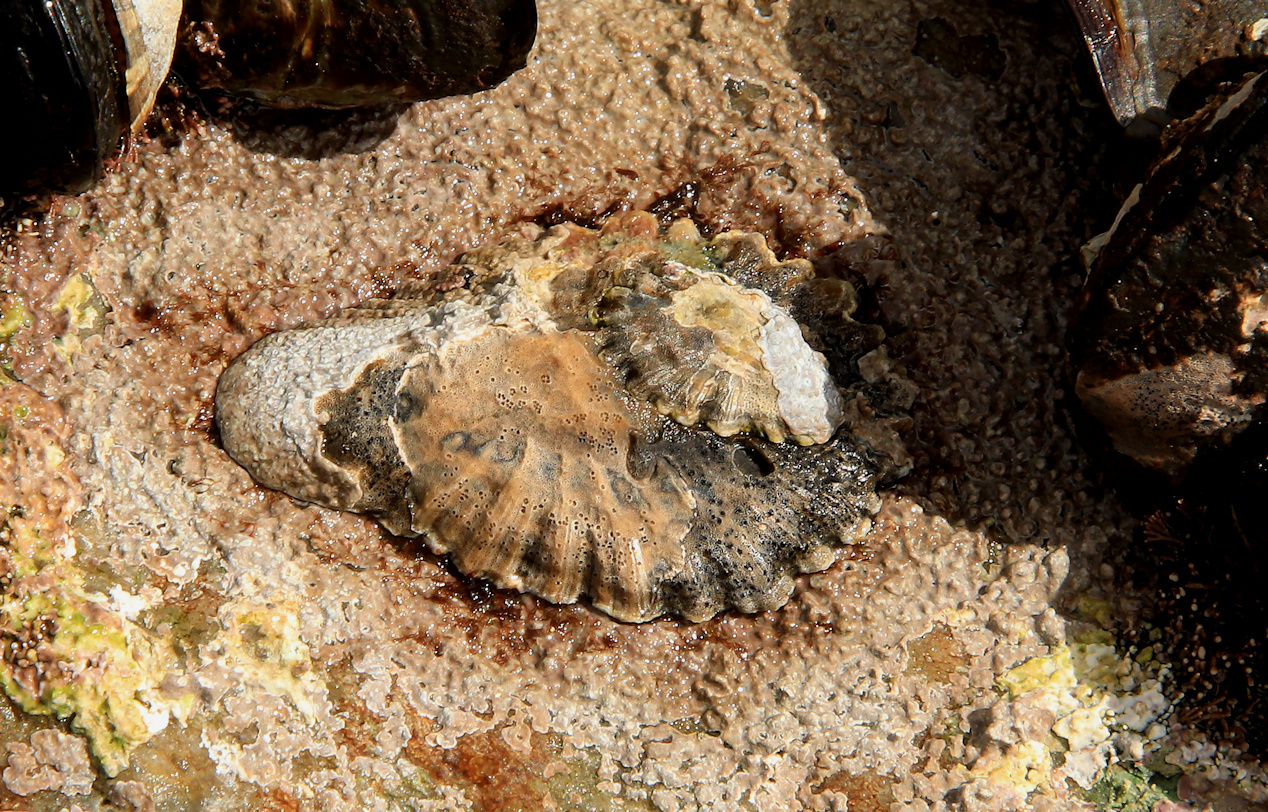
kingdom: Animalia
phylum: Mollusca
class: Gastropoda
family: Patellidae
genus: Scutellastra
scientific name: Scutellastra cochlear
